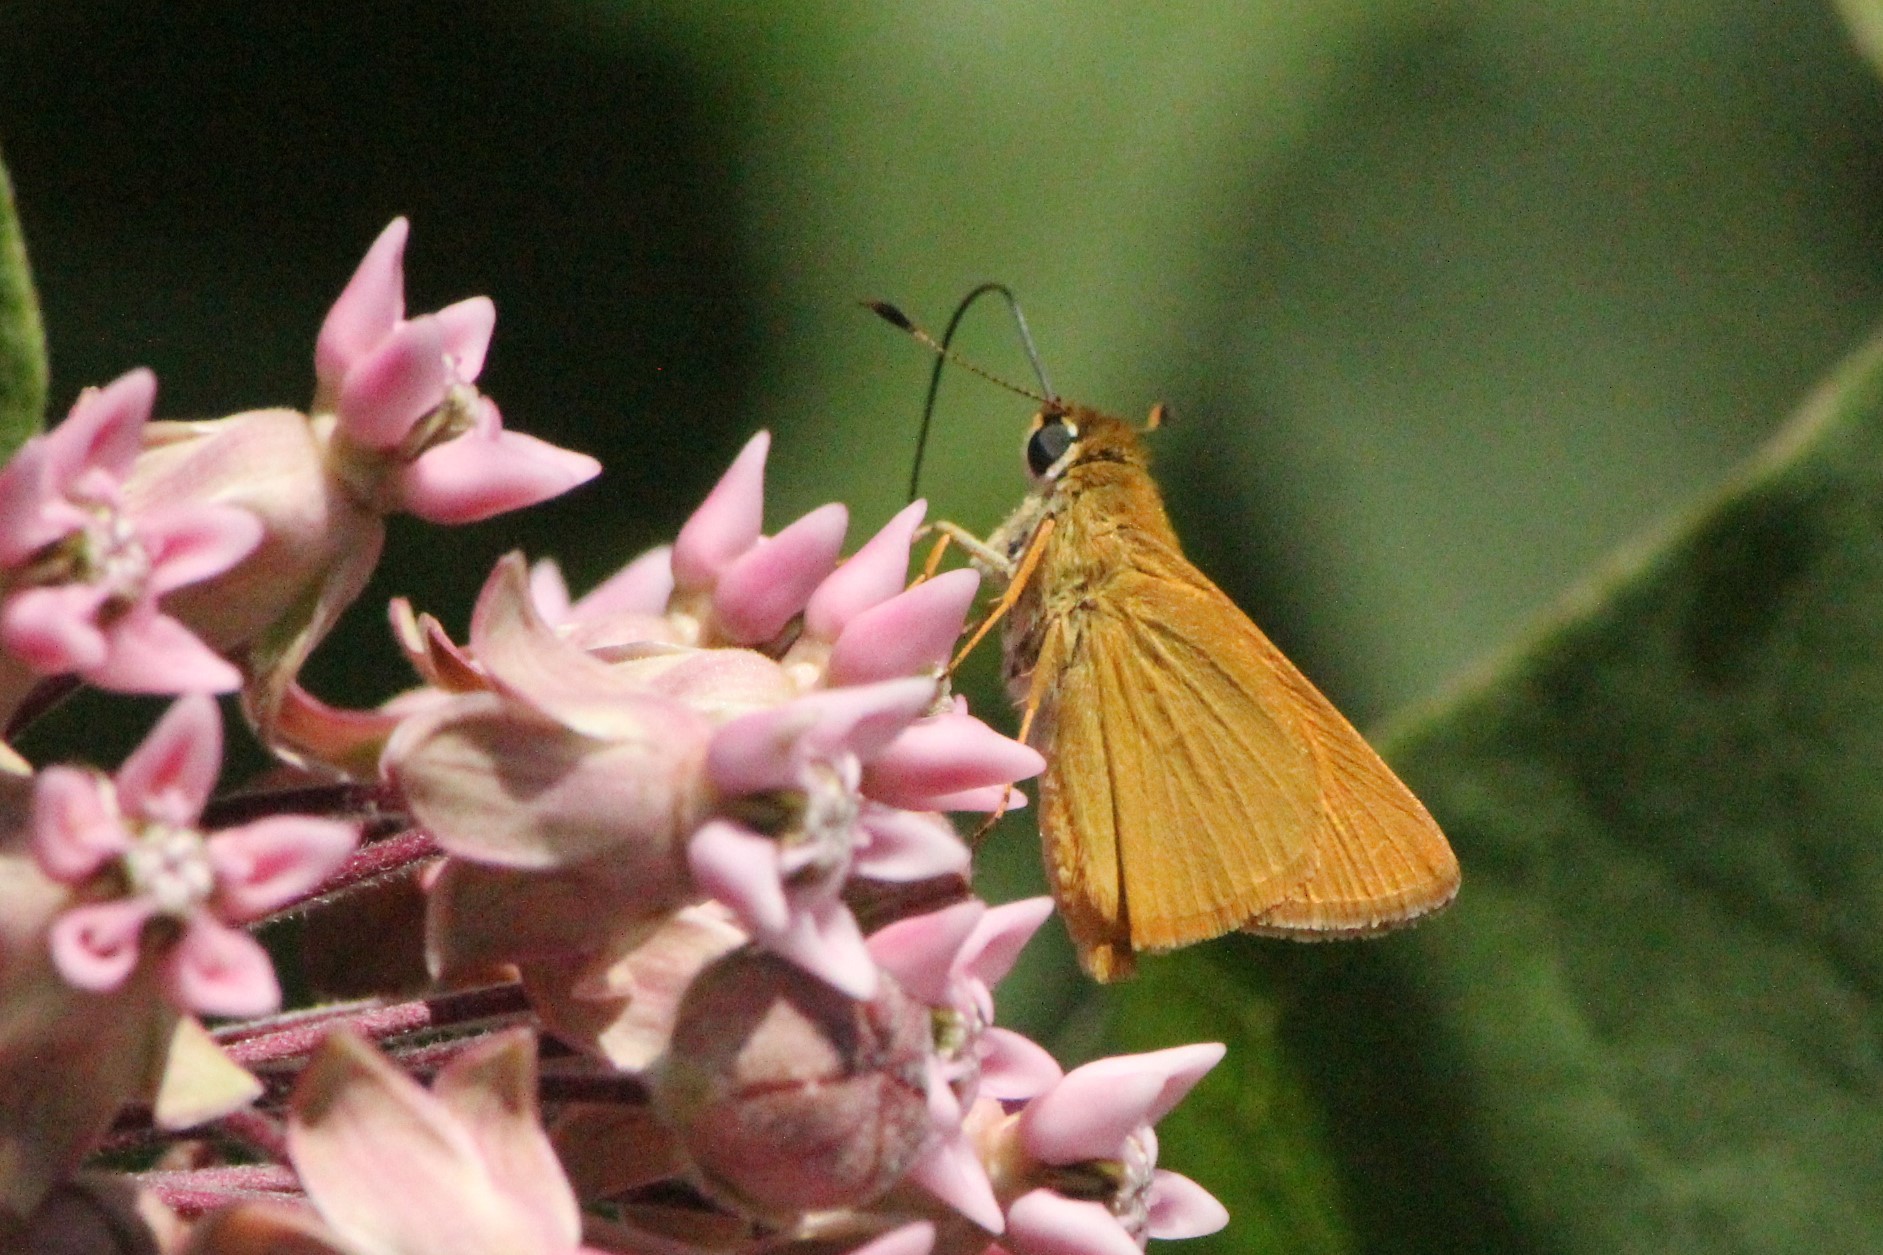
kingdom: Animalia
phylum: Arthropoda
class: Insecta
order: Lepidoptera
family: Hesperiidae
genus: Atrytone
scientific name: Atrytone delaware
